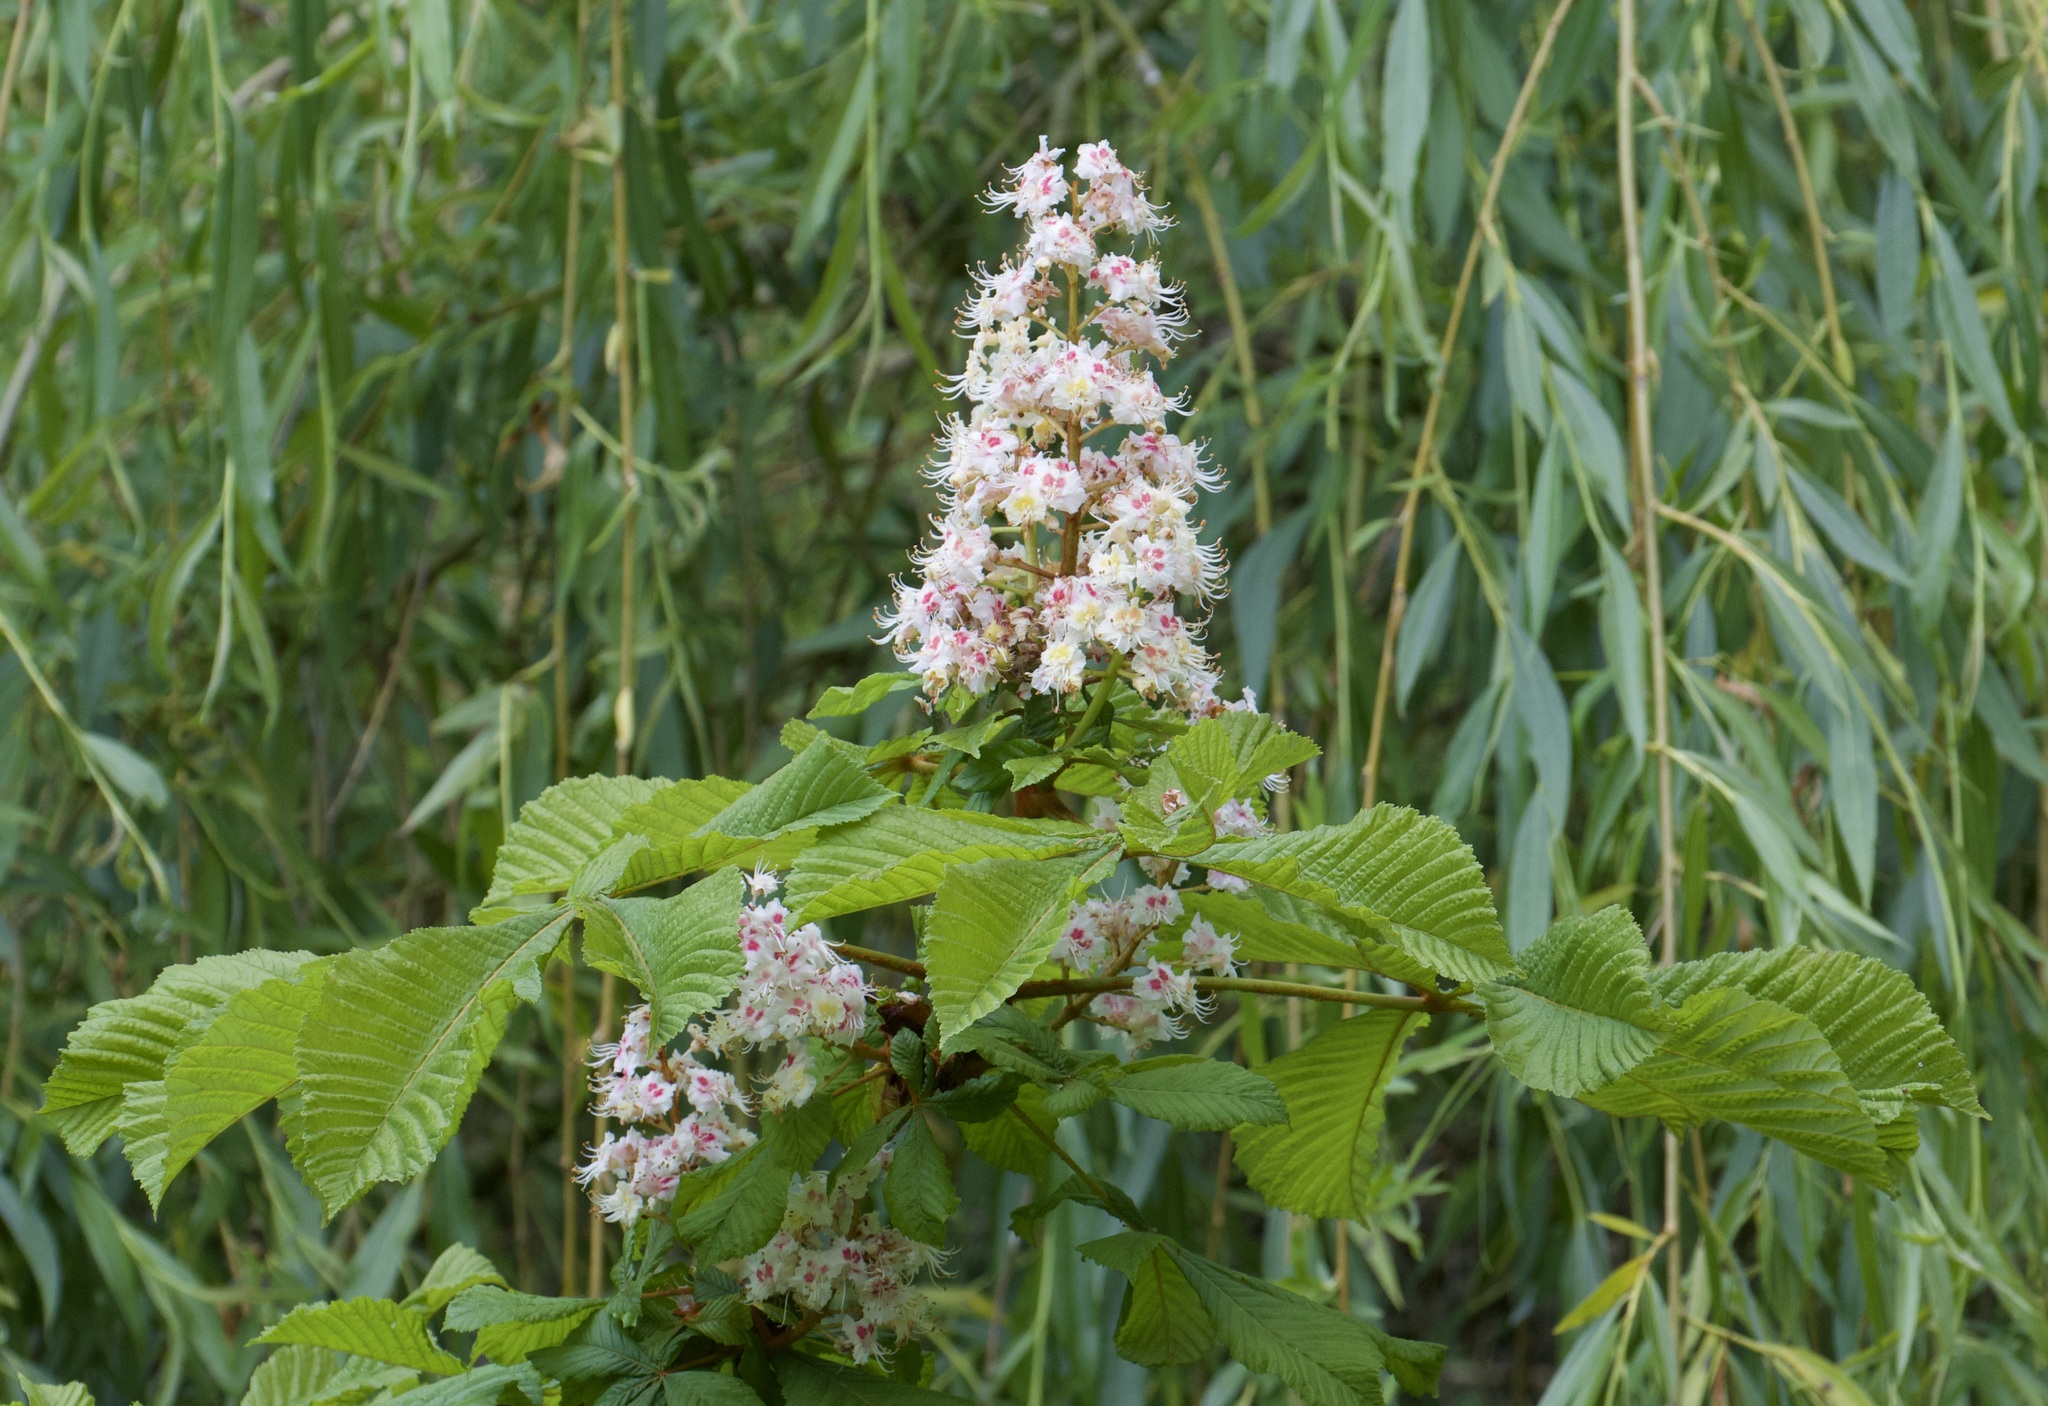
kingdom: Plantae
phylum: Tracheophyta
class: Magnoliopsida
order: Sapindales
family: Sapindaceae
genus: Aesculus
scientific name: Aesculus hippocastanum
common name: Horse-chestnut
